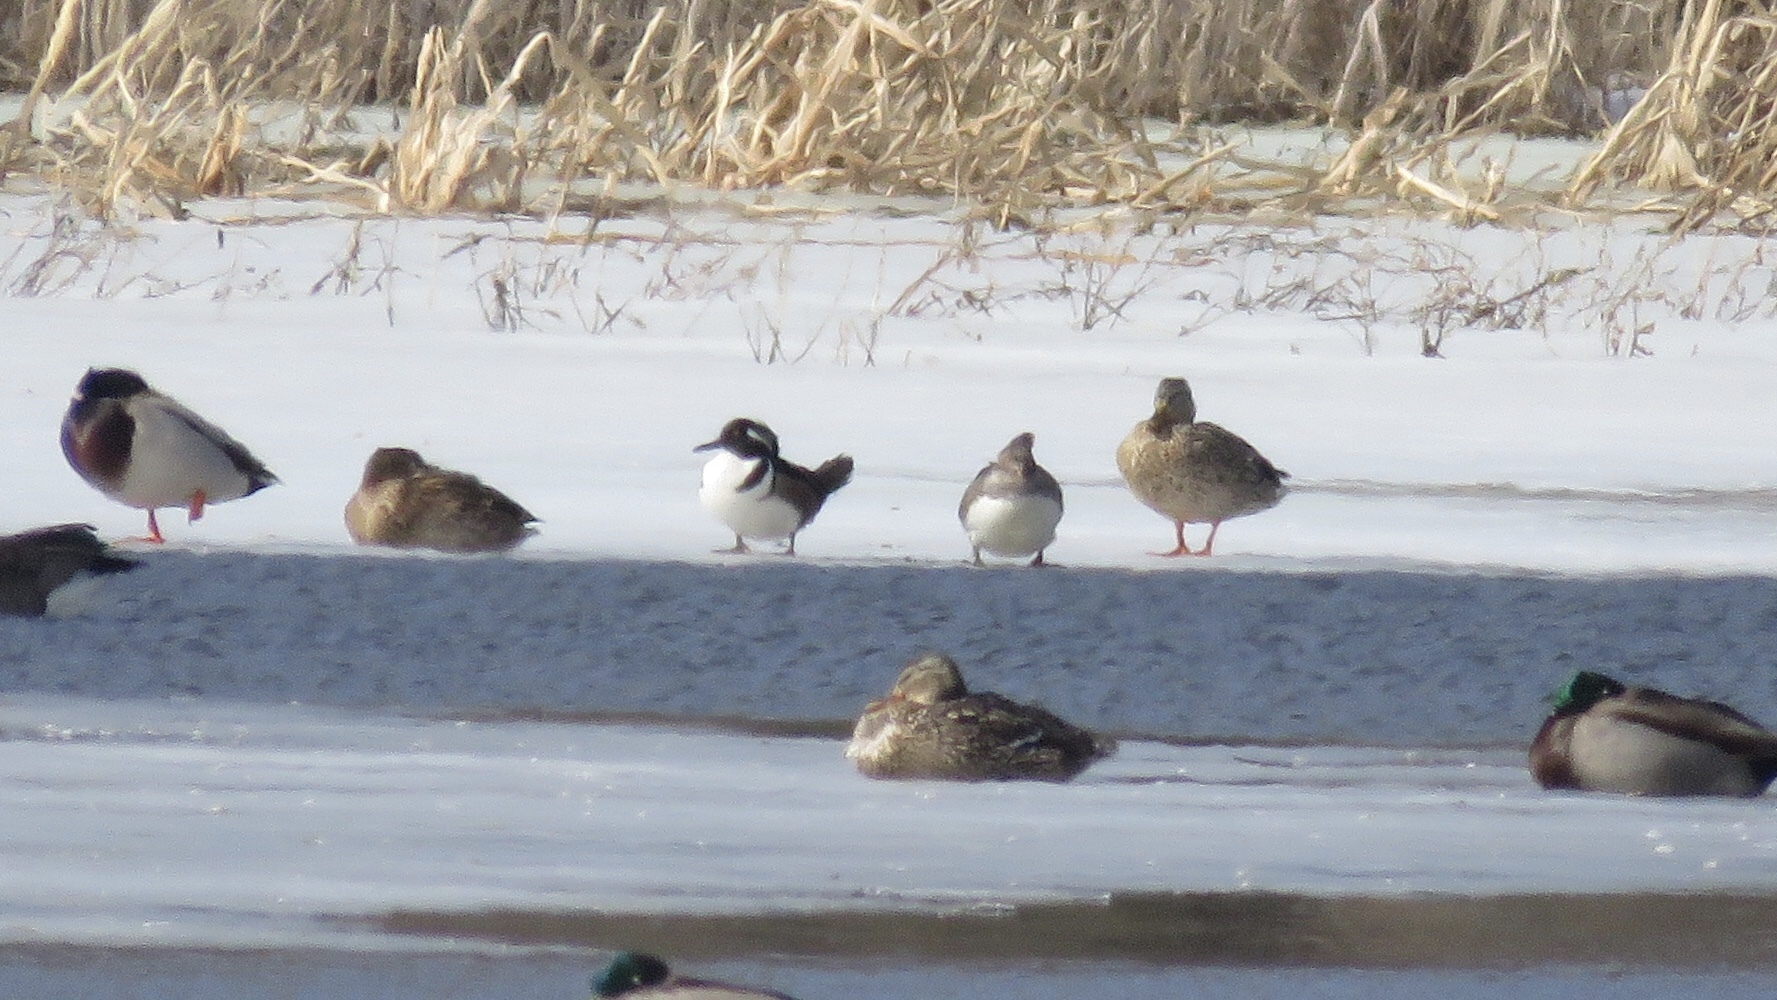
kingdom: Animalia
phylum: Chordata
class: Aves
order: Anseriformes
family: Anatidae
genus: Lophodytes
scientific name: Lophodytes cucullatus
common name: Hooded merganser
